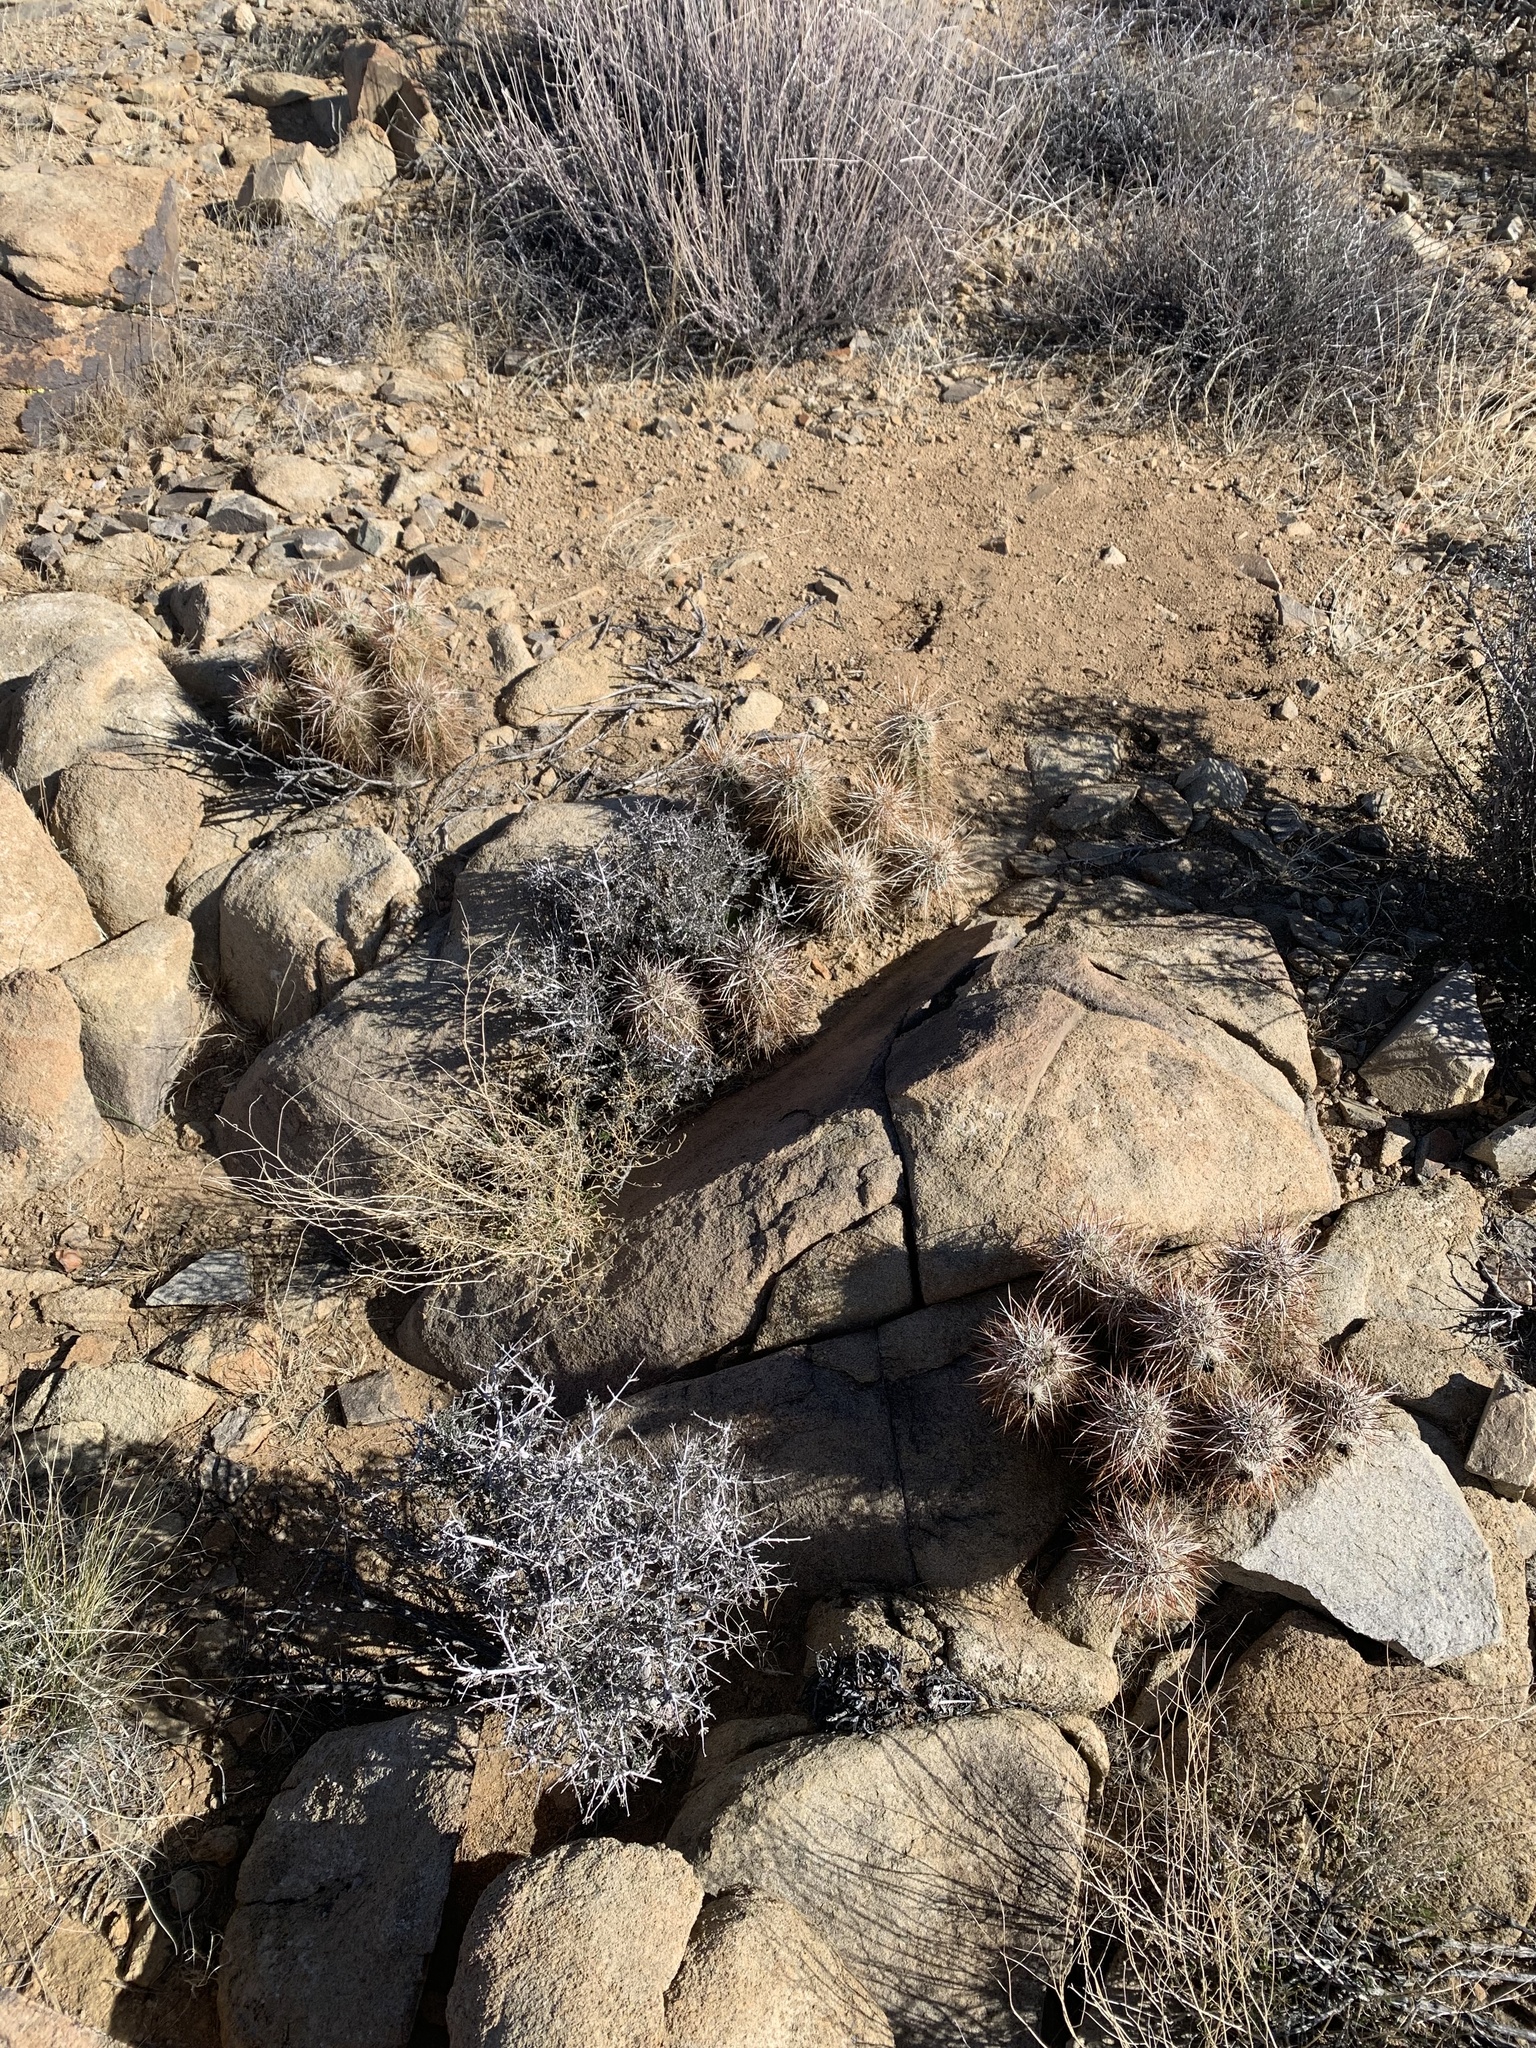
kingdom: Plantae
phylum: Tracheophyta
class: Magnoliopsida
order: Caryophyllales
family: Cactaceae
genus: Echinocereus
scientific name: Echinocereus engelmannii
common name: Engelmann's hedgehog cactus
